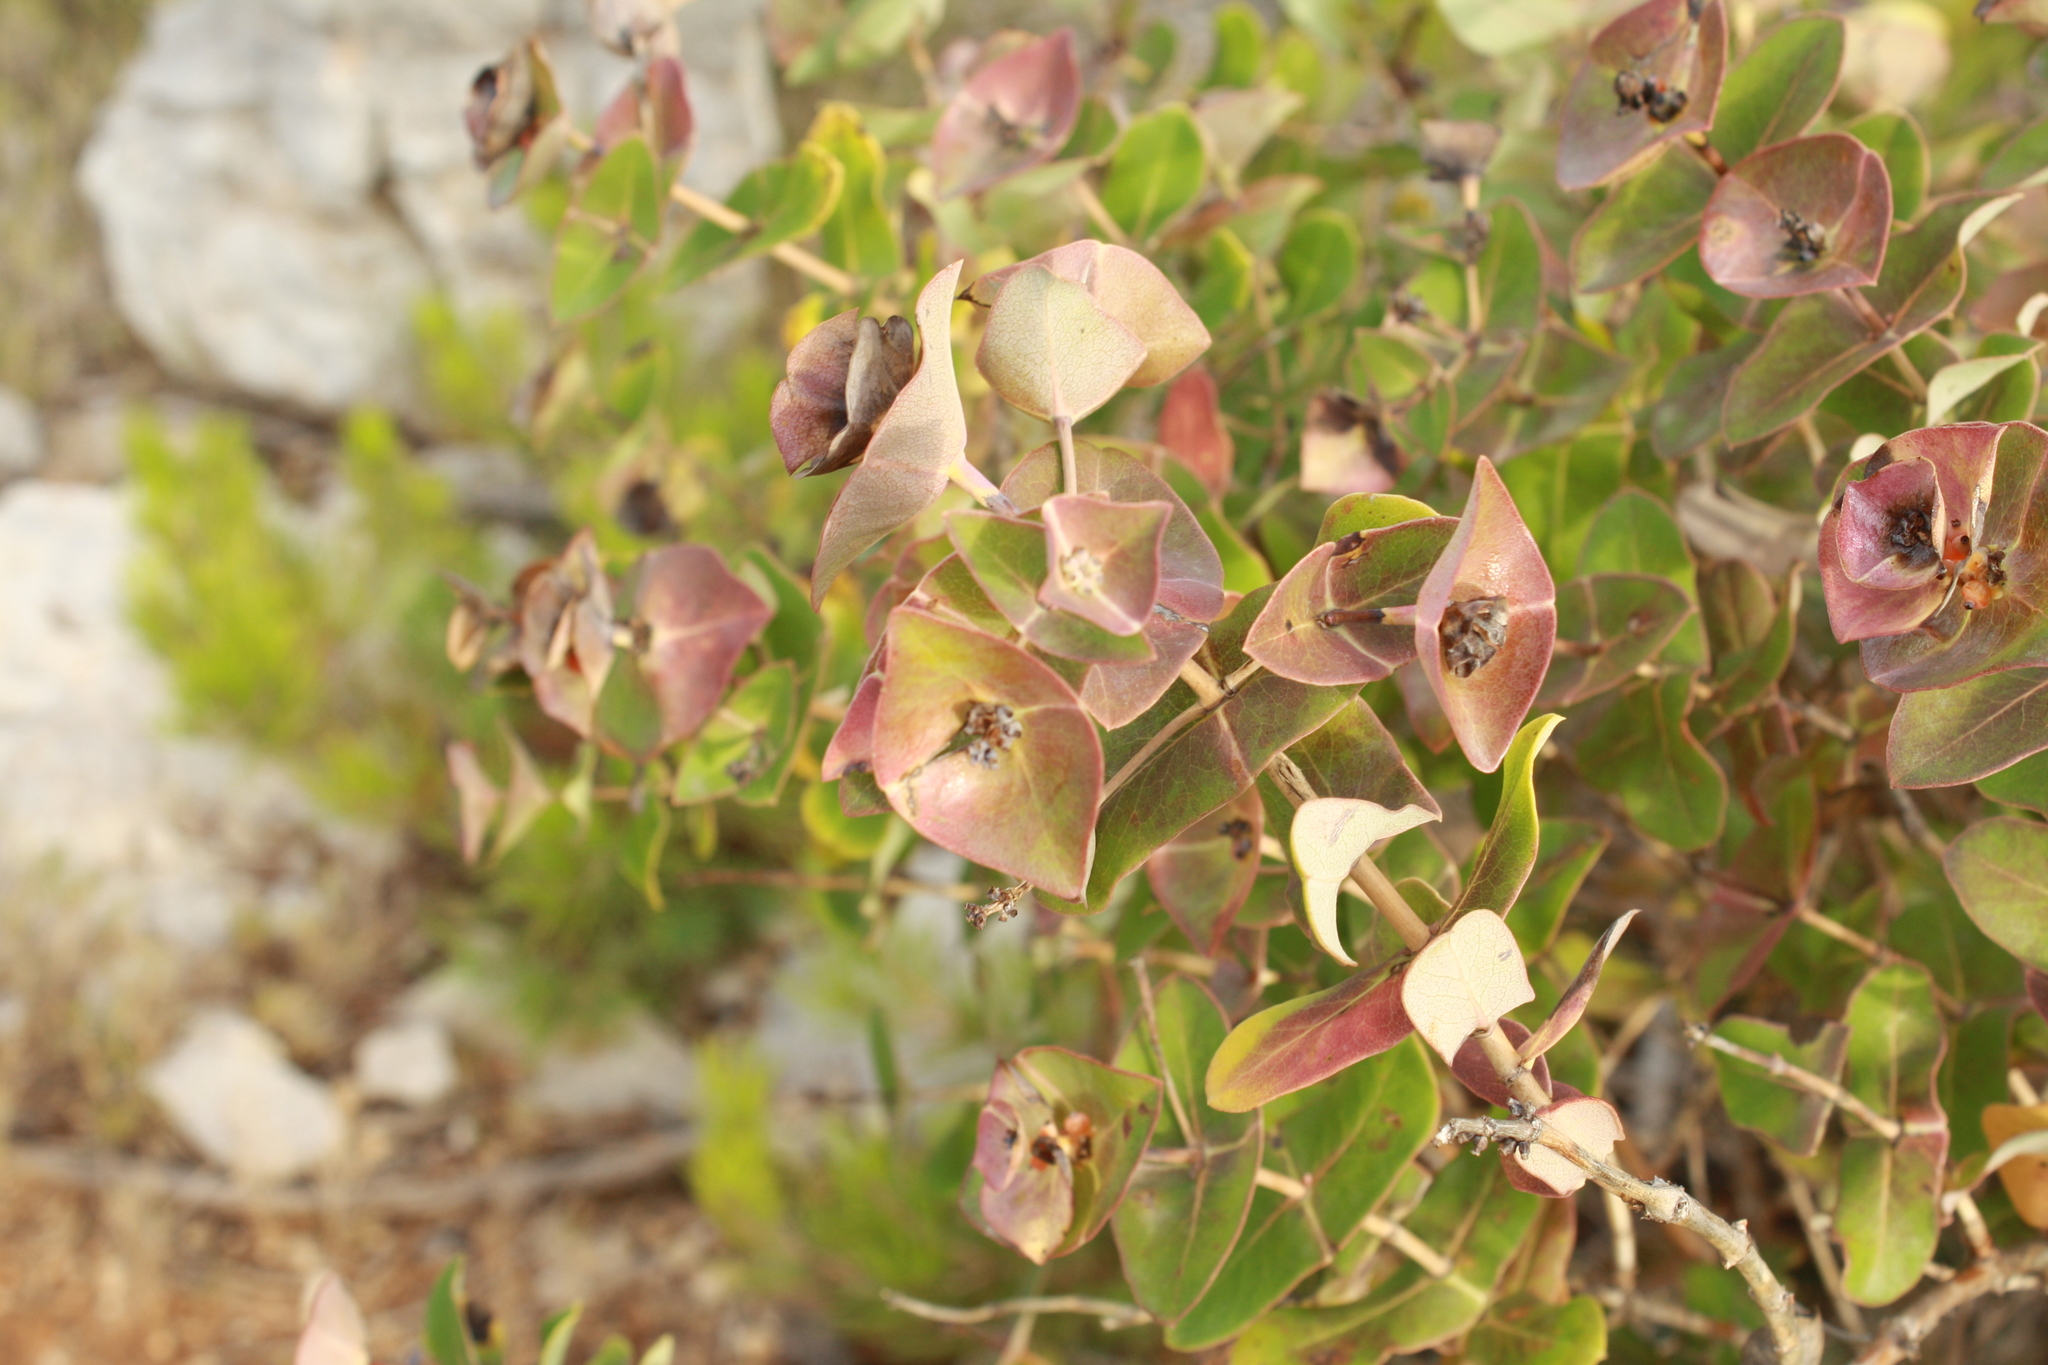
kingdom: Plantae
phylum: Tracheophyta
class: Magnoliopsida
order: Dipsacales
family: Caprifoliaceae
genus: Lonicera
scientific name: Lonicera implexa
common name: Minorca honeysuckle
